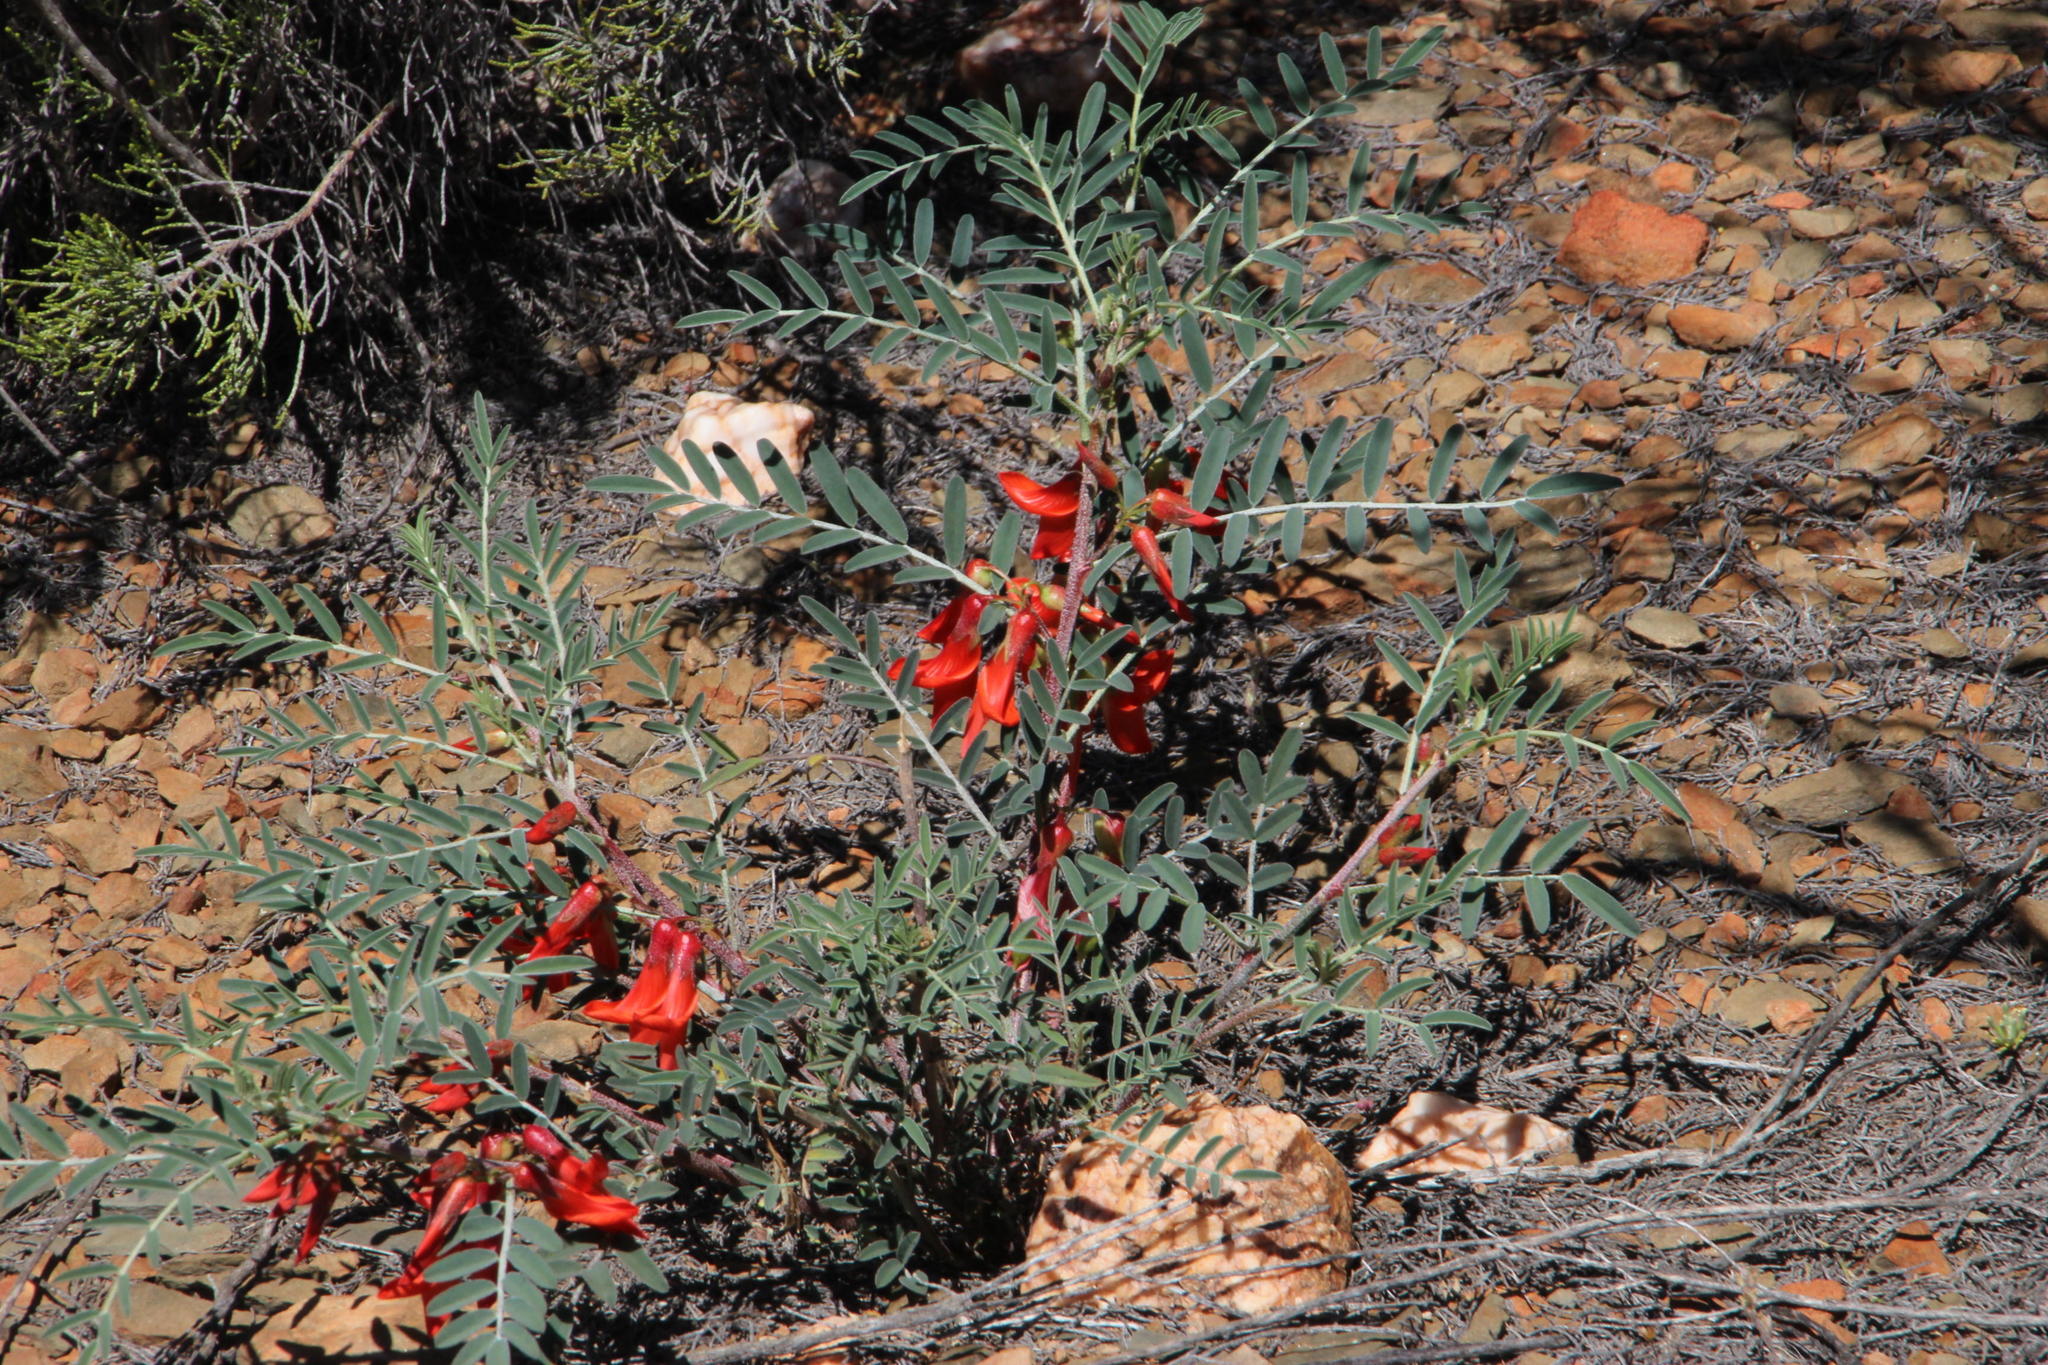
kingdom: Plantae
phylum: Tracheophyta
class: Magnoliopsida
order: Fabales
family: Fabaceae
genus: Lessertia
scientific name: Lessertia frutescens
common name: Balloon-pea
